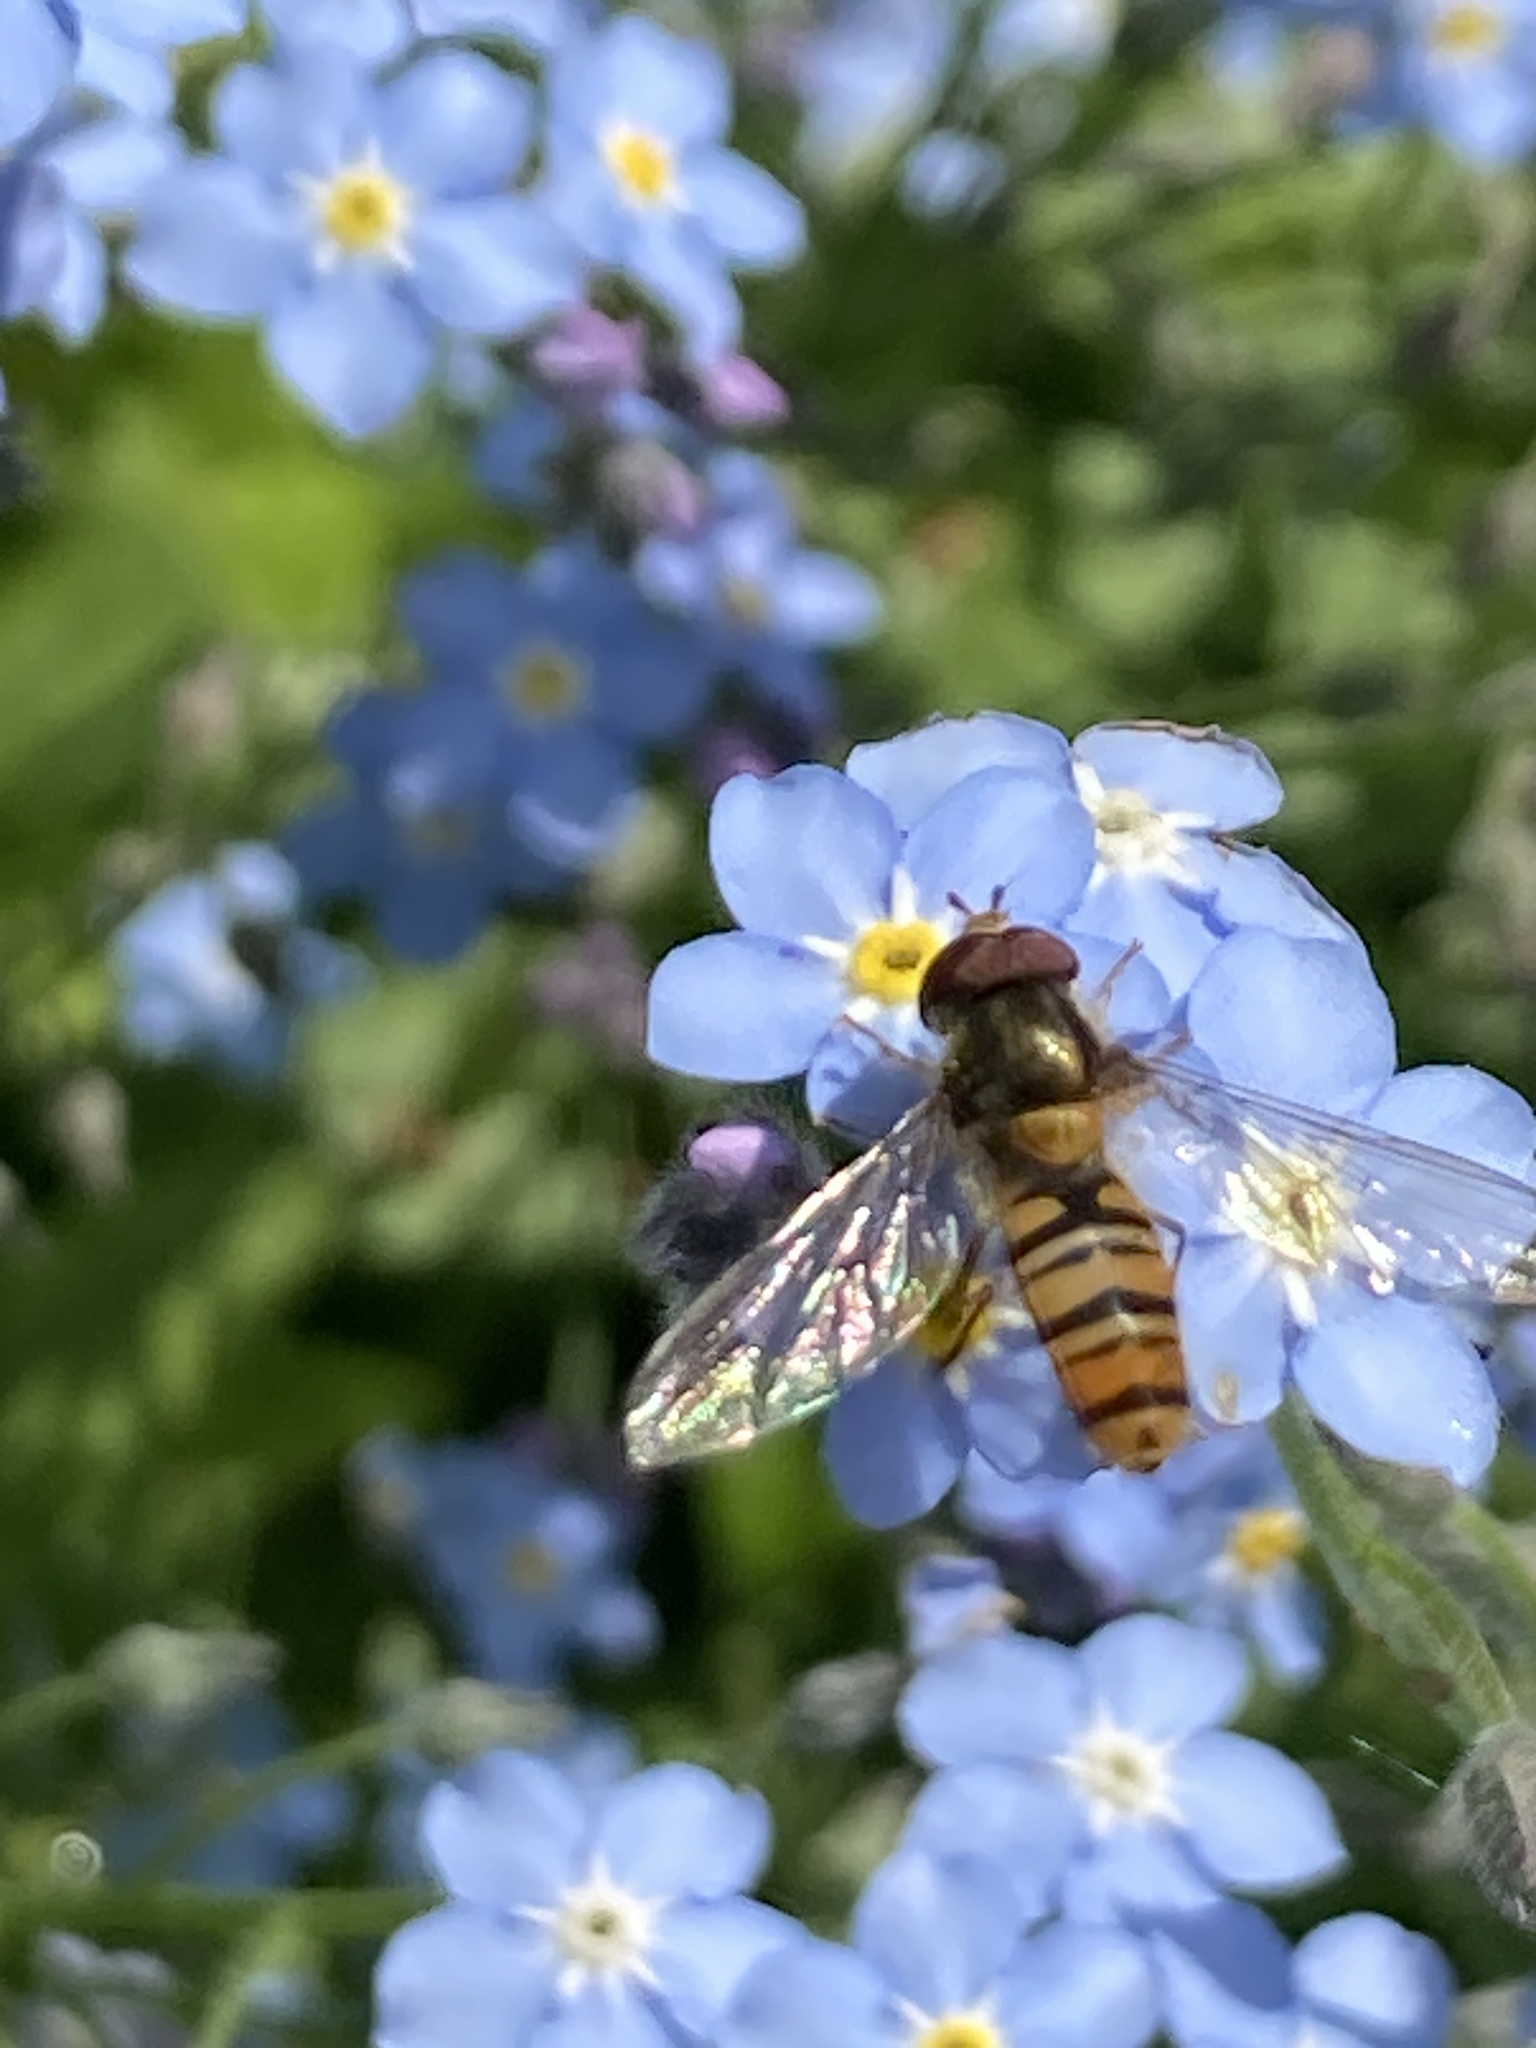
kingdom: Animalia
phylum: Arthropoda
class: Insecta
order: Diptera
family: Syrphidae
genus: Episyrphus
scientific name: Episyrphus balteatus
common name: Marmalade hoverfly
